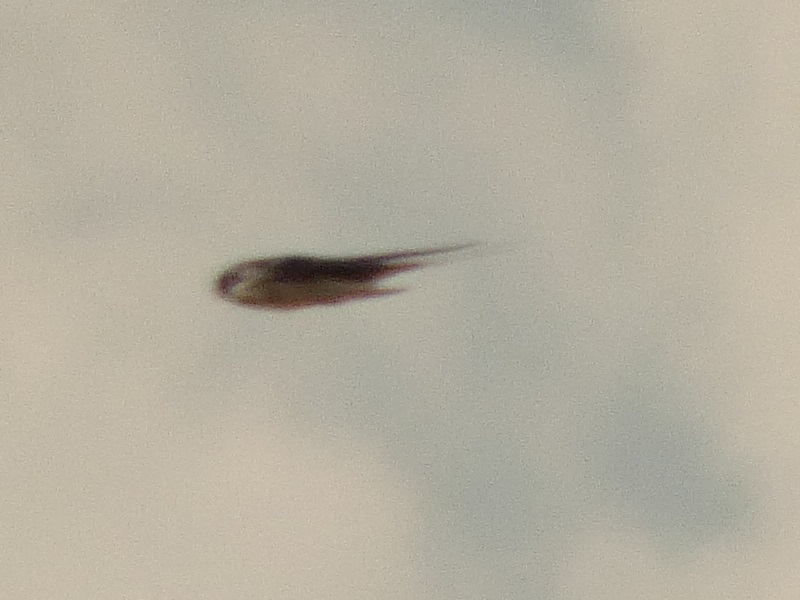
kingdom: Animalia
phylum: Chordata
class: Aves
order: Passeriformes
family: Hirundinidae
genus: Hirundo
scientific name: Hirundo rustica
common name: Barn swallow
